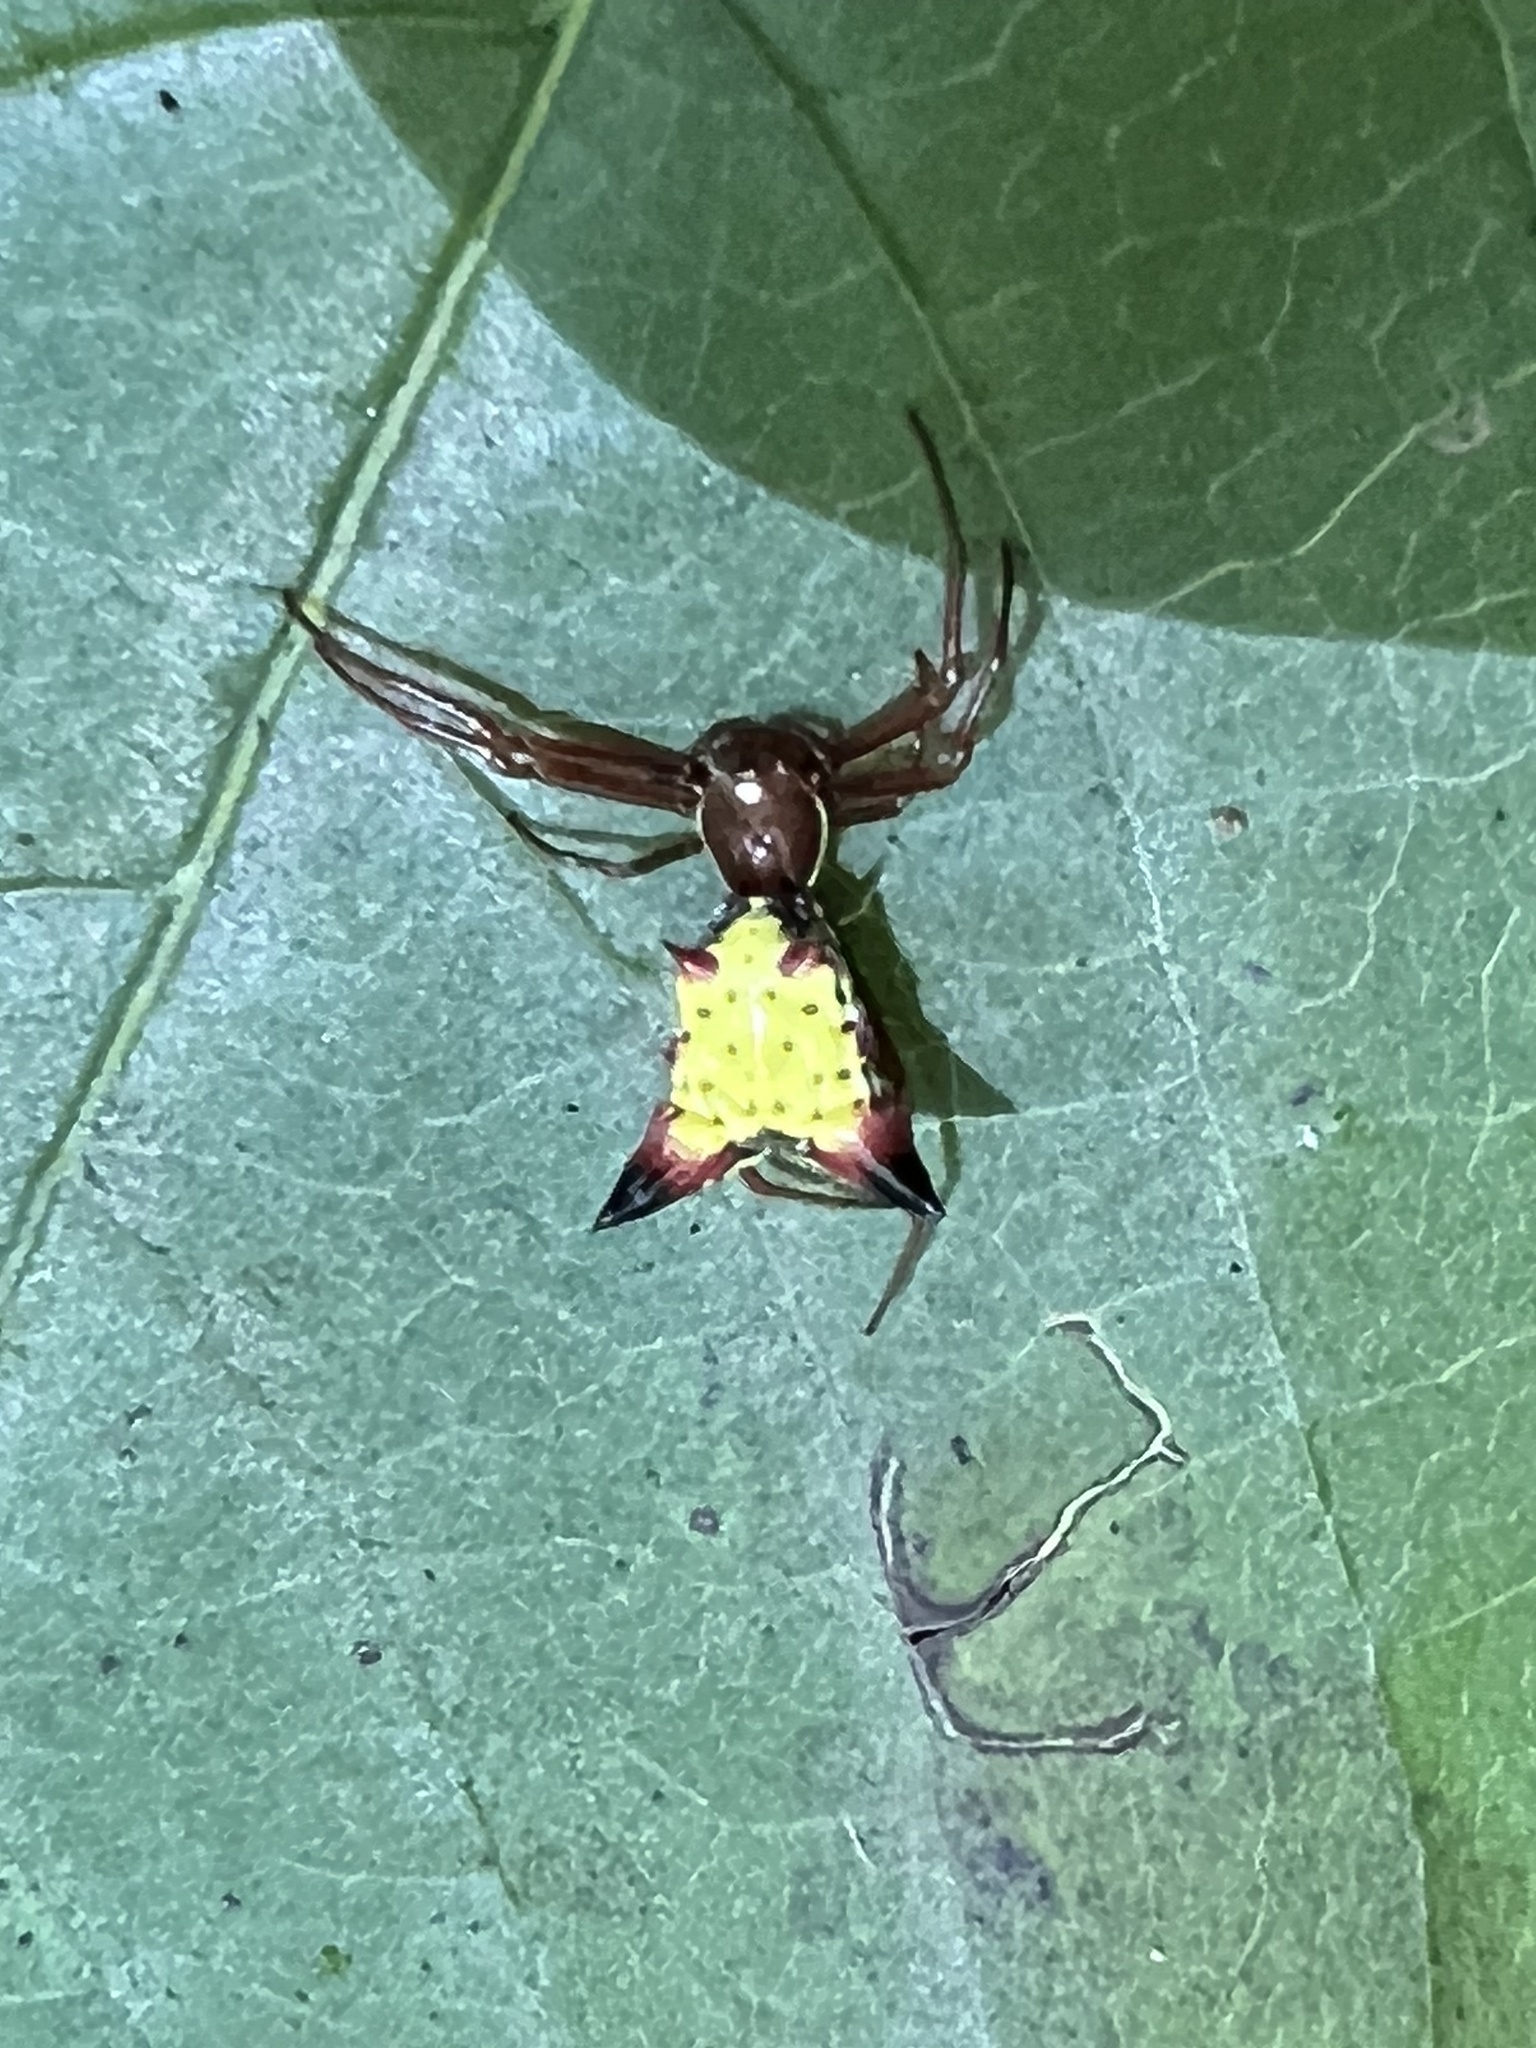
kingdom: Animalia
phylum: Arthropoda
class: Arachnida
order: Araneae
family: Araneidae
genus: Micrathena
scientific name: Micrathena sagittata
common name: Orb weavers
